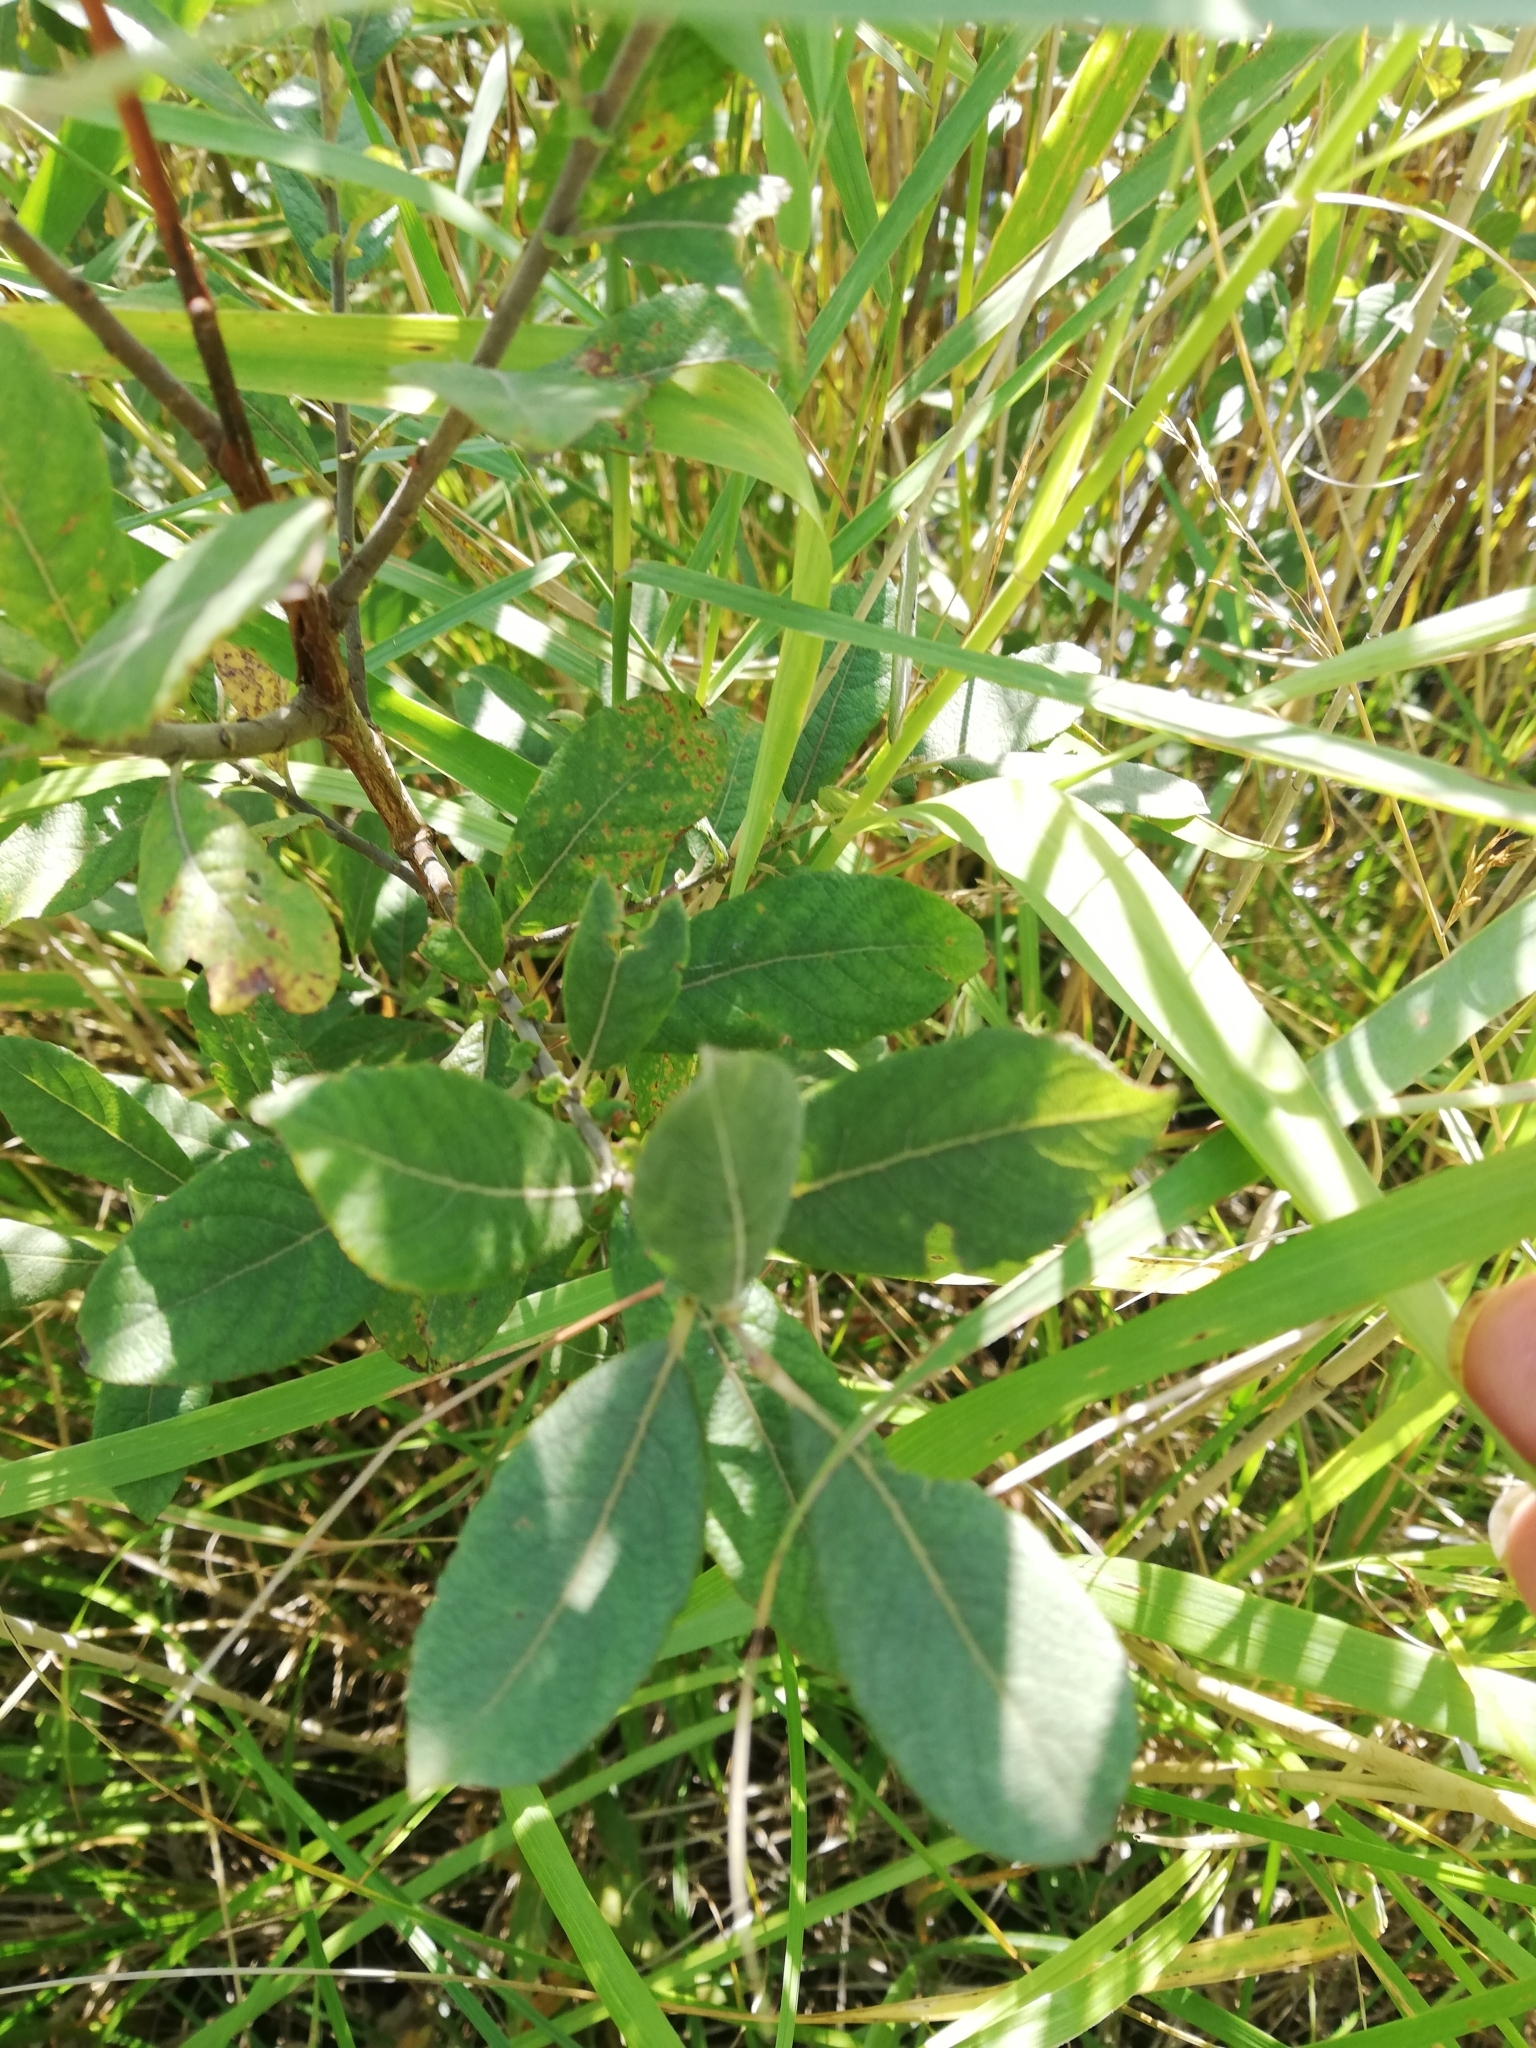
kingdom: Plantae
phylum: Tracheophyta
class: Magnoliopsida
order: Malpighiales
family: Salicaceae
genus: Salix
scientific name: Salix cinerea
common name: Common sallow
